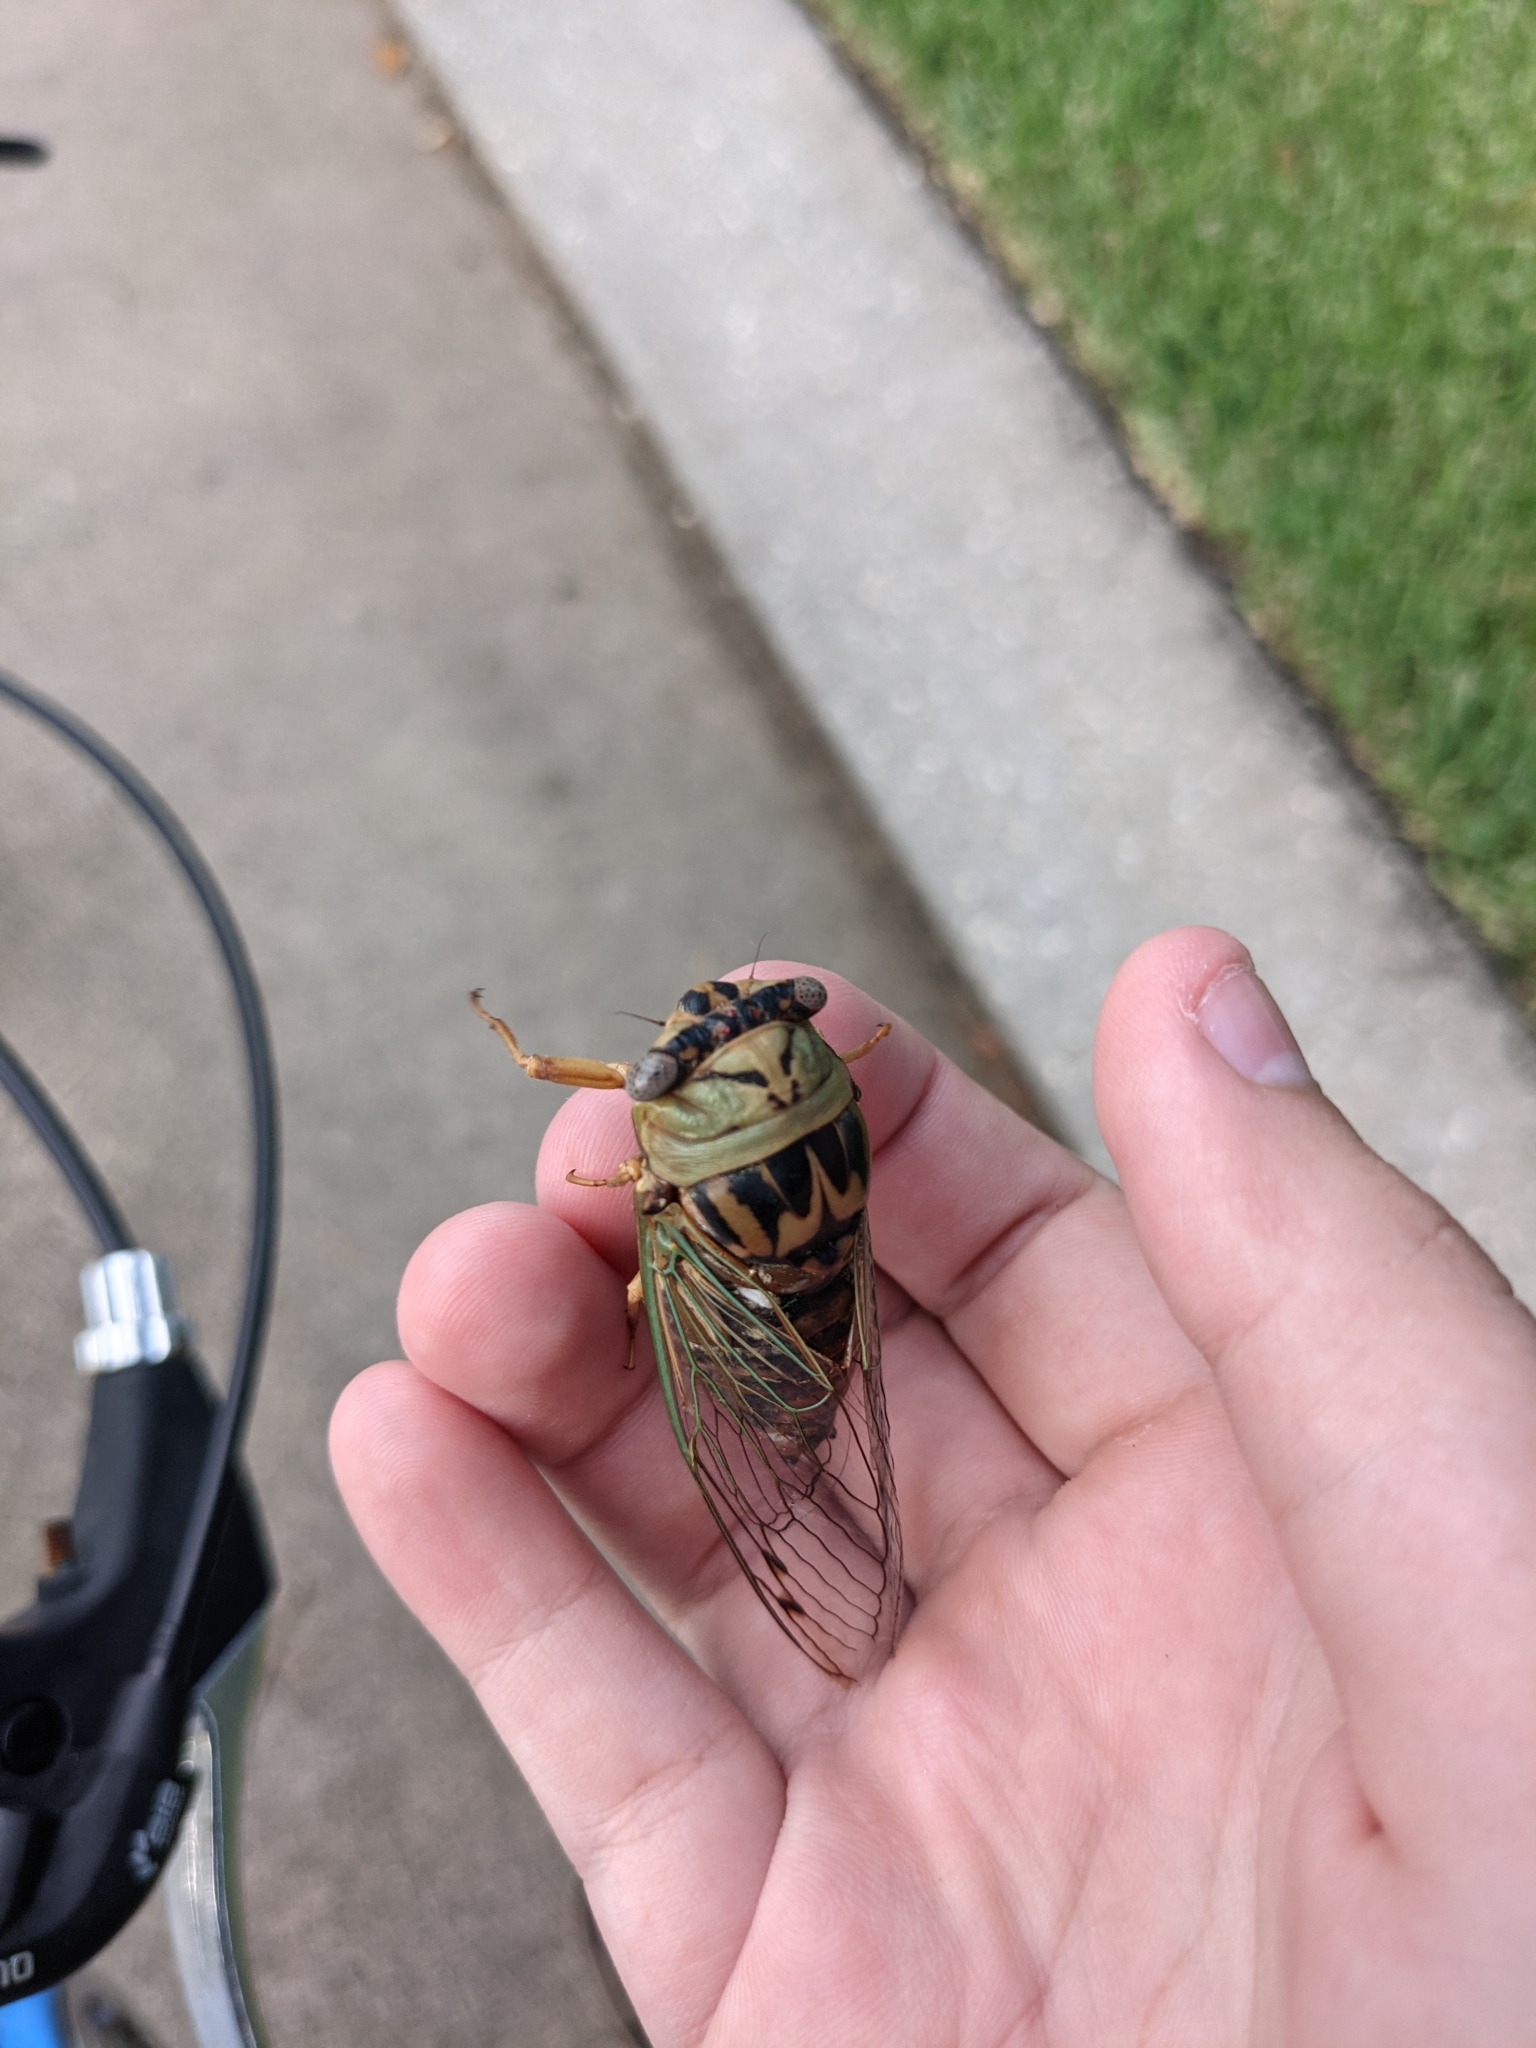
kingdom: Animalia
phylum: Arthropoda
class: Insecta
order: Hemiptera
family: Cicadidae
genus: Megatibicen
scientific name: Megatibicen resh
